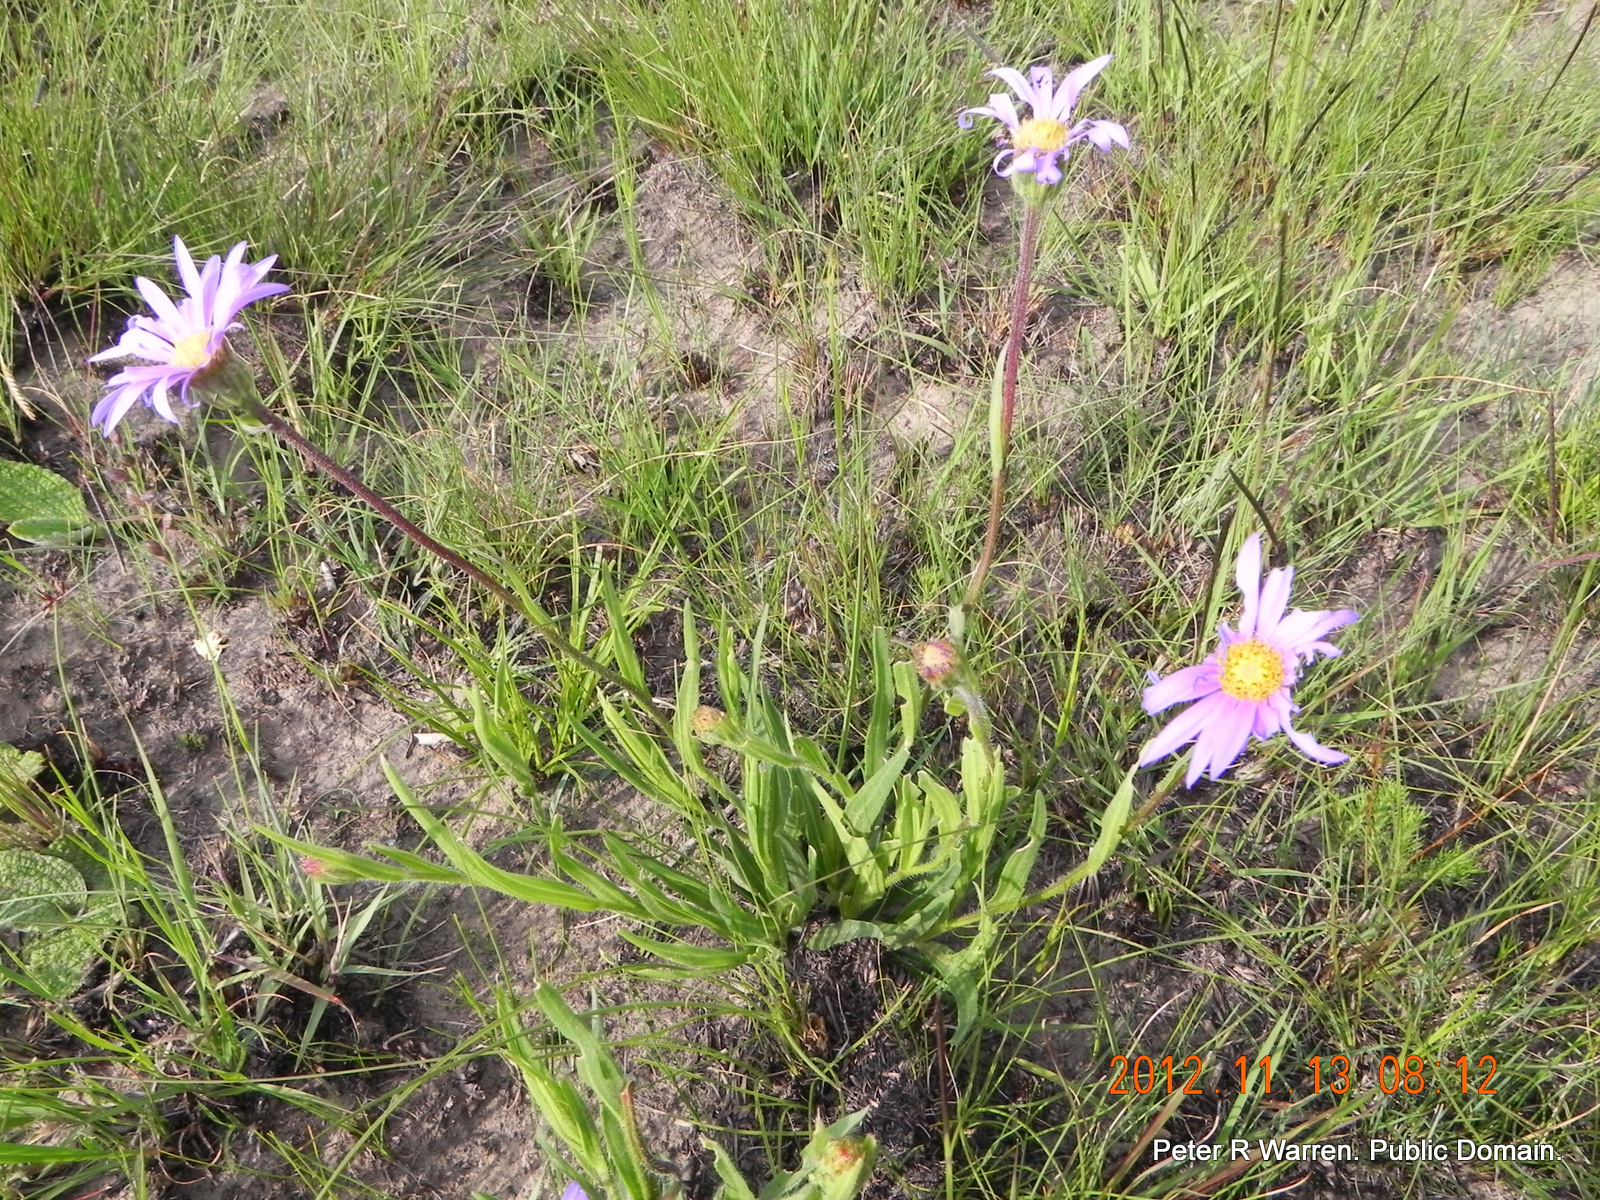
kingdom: Plantae
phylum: Tracheophyta
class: Magnoliopsida
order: Asterales
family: Asteraceae
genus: Afroaster
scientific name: Afroaster hispidus
